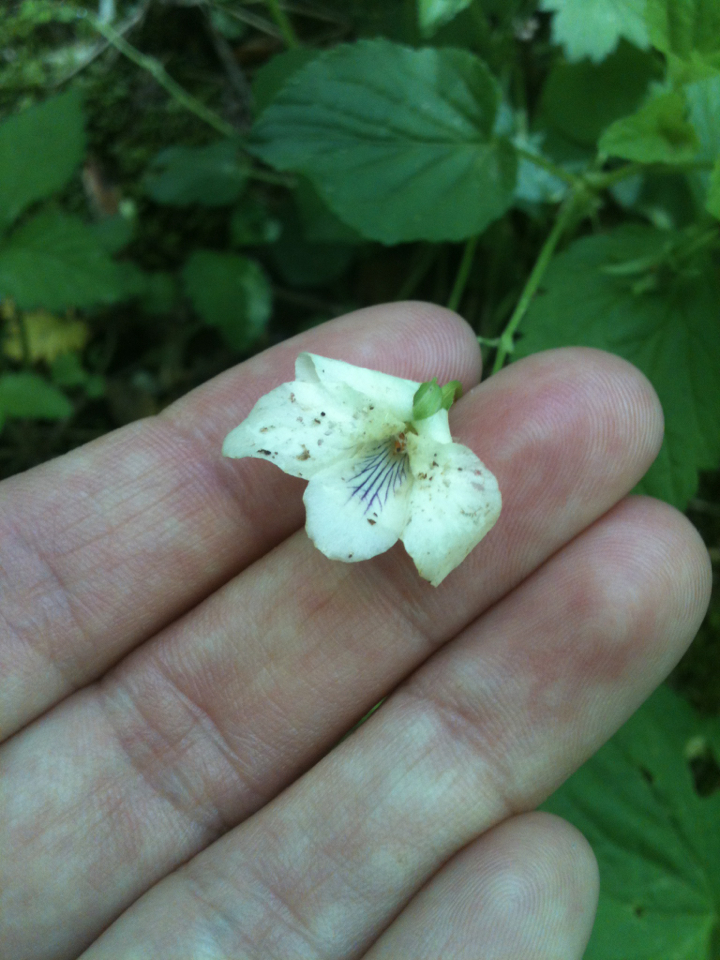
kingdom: Plantae
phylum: Tracheophyta
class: Magnoliopsida
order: Malpighiales
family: Violaceae
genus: Viola
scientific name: Viola striata
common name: Cream violet
